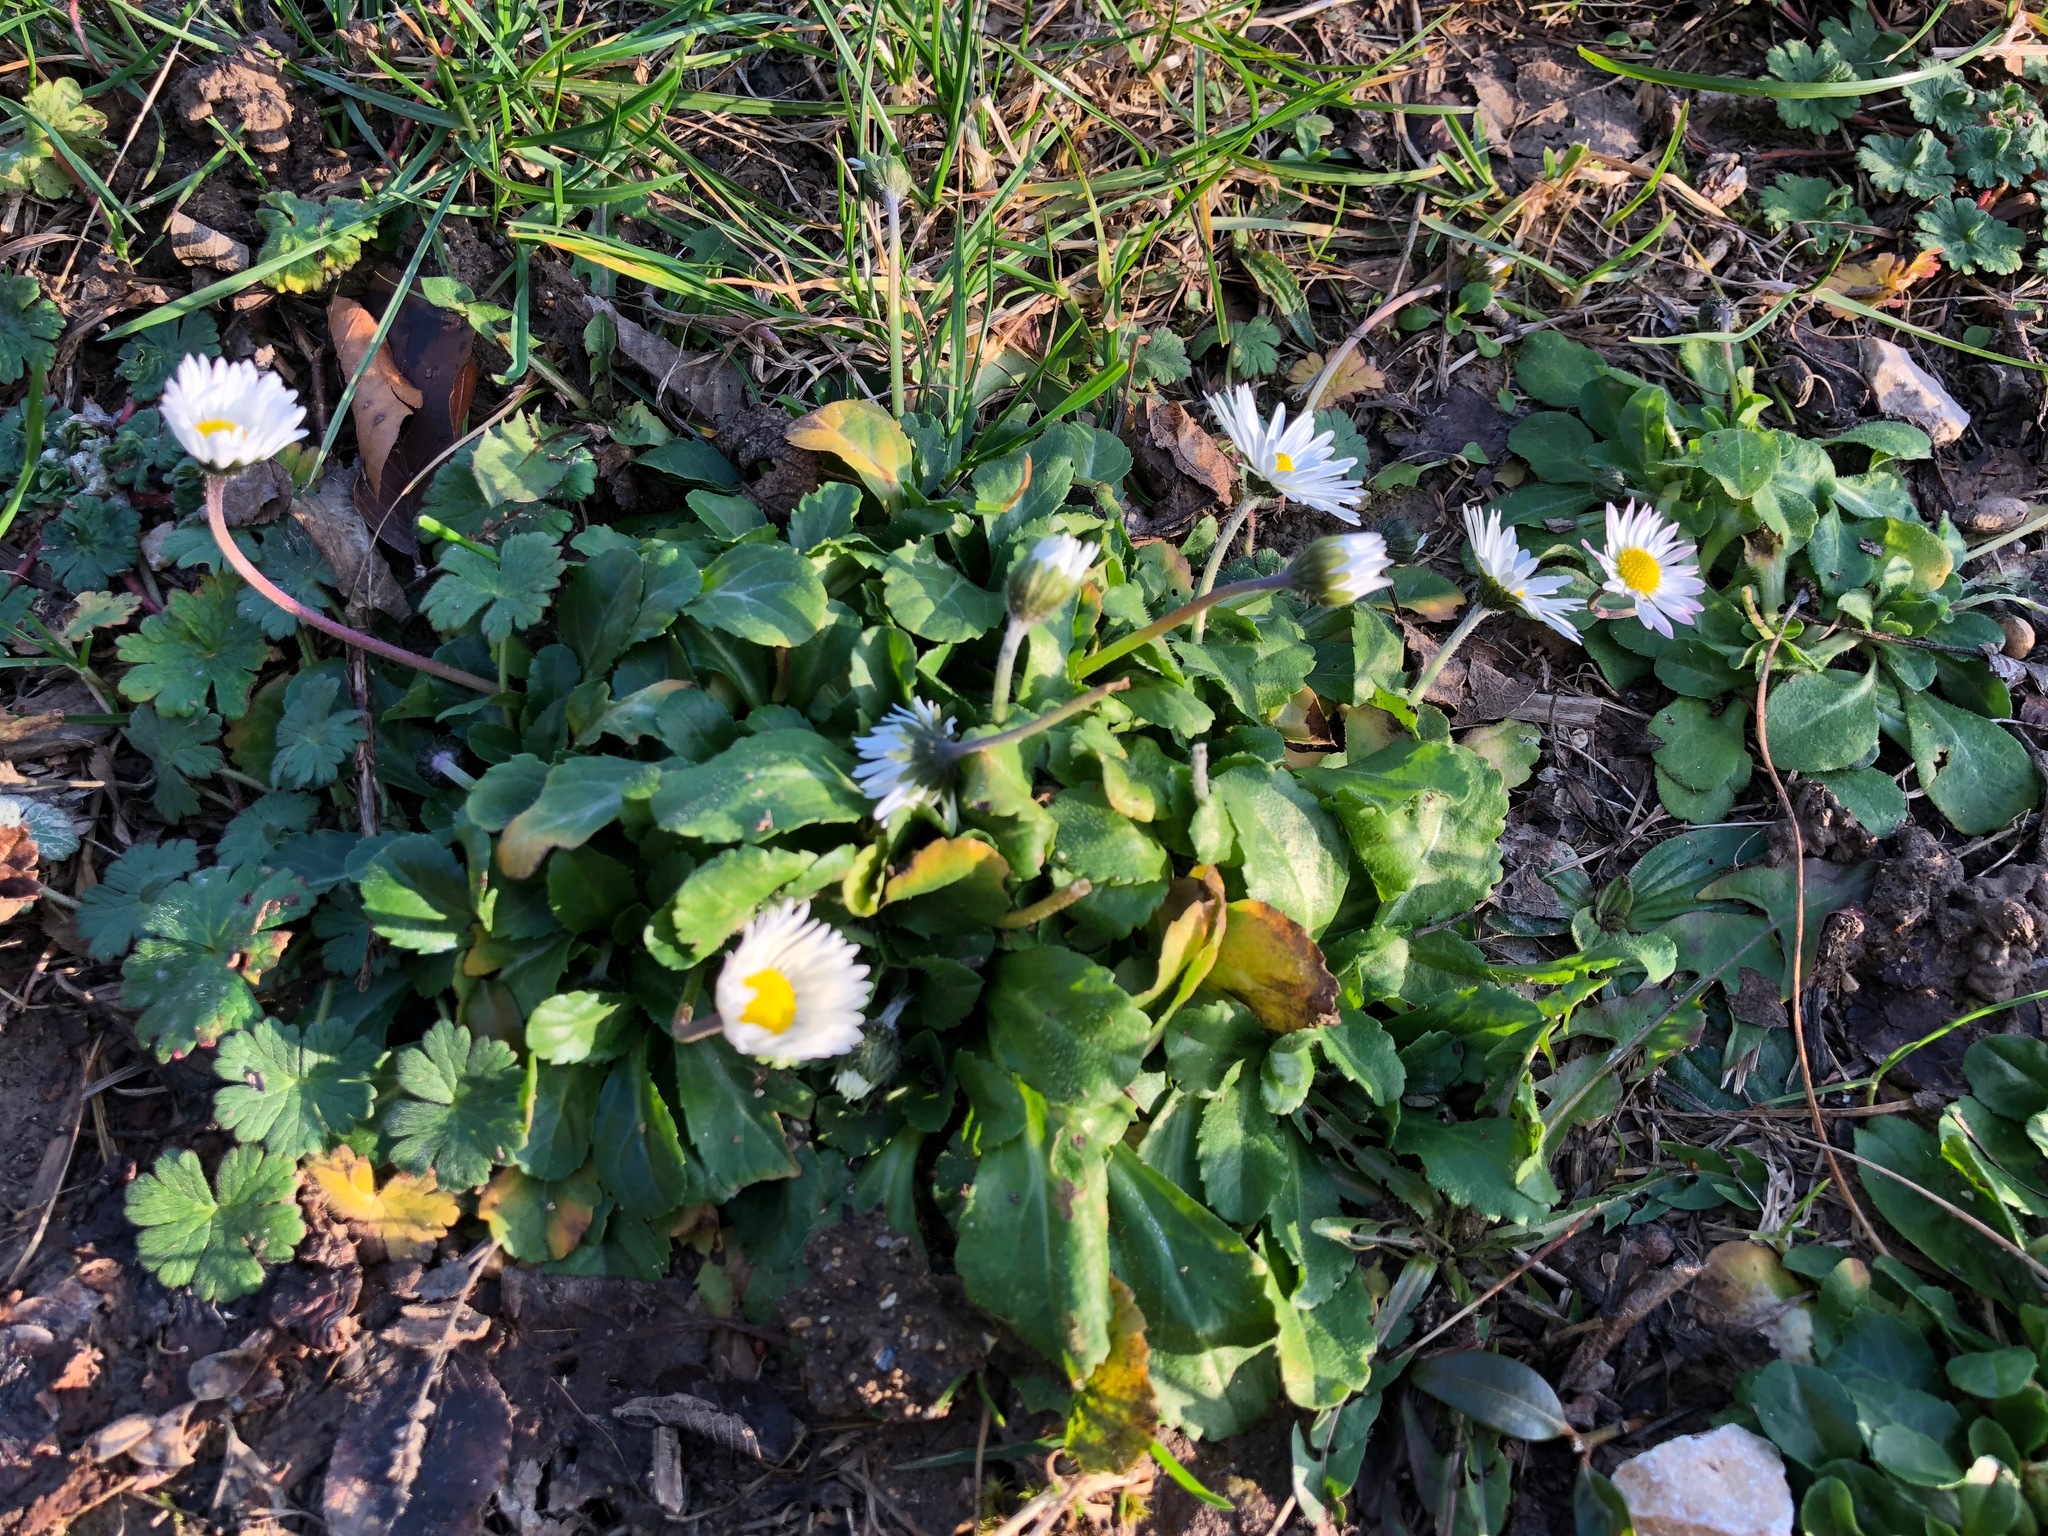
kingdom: Plantae
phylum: Tracheophyta
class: Magnoliopsida
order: Asterales
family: Asteraceae
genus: Bellis
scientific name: Bellis perennis
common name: Lawndaisy
